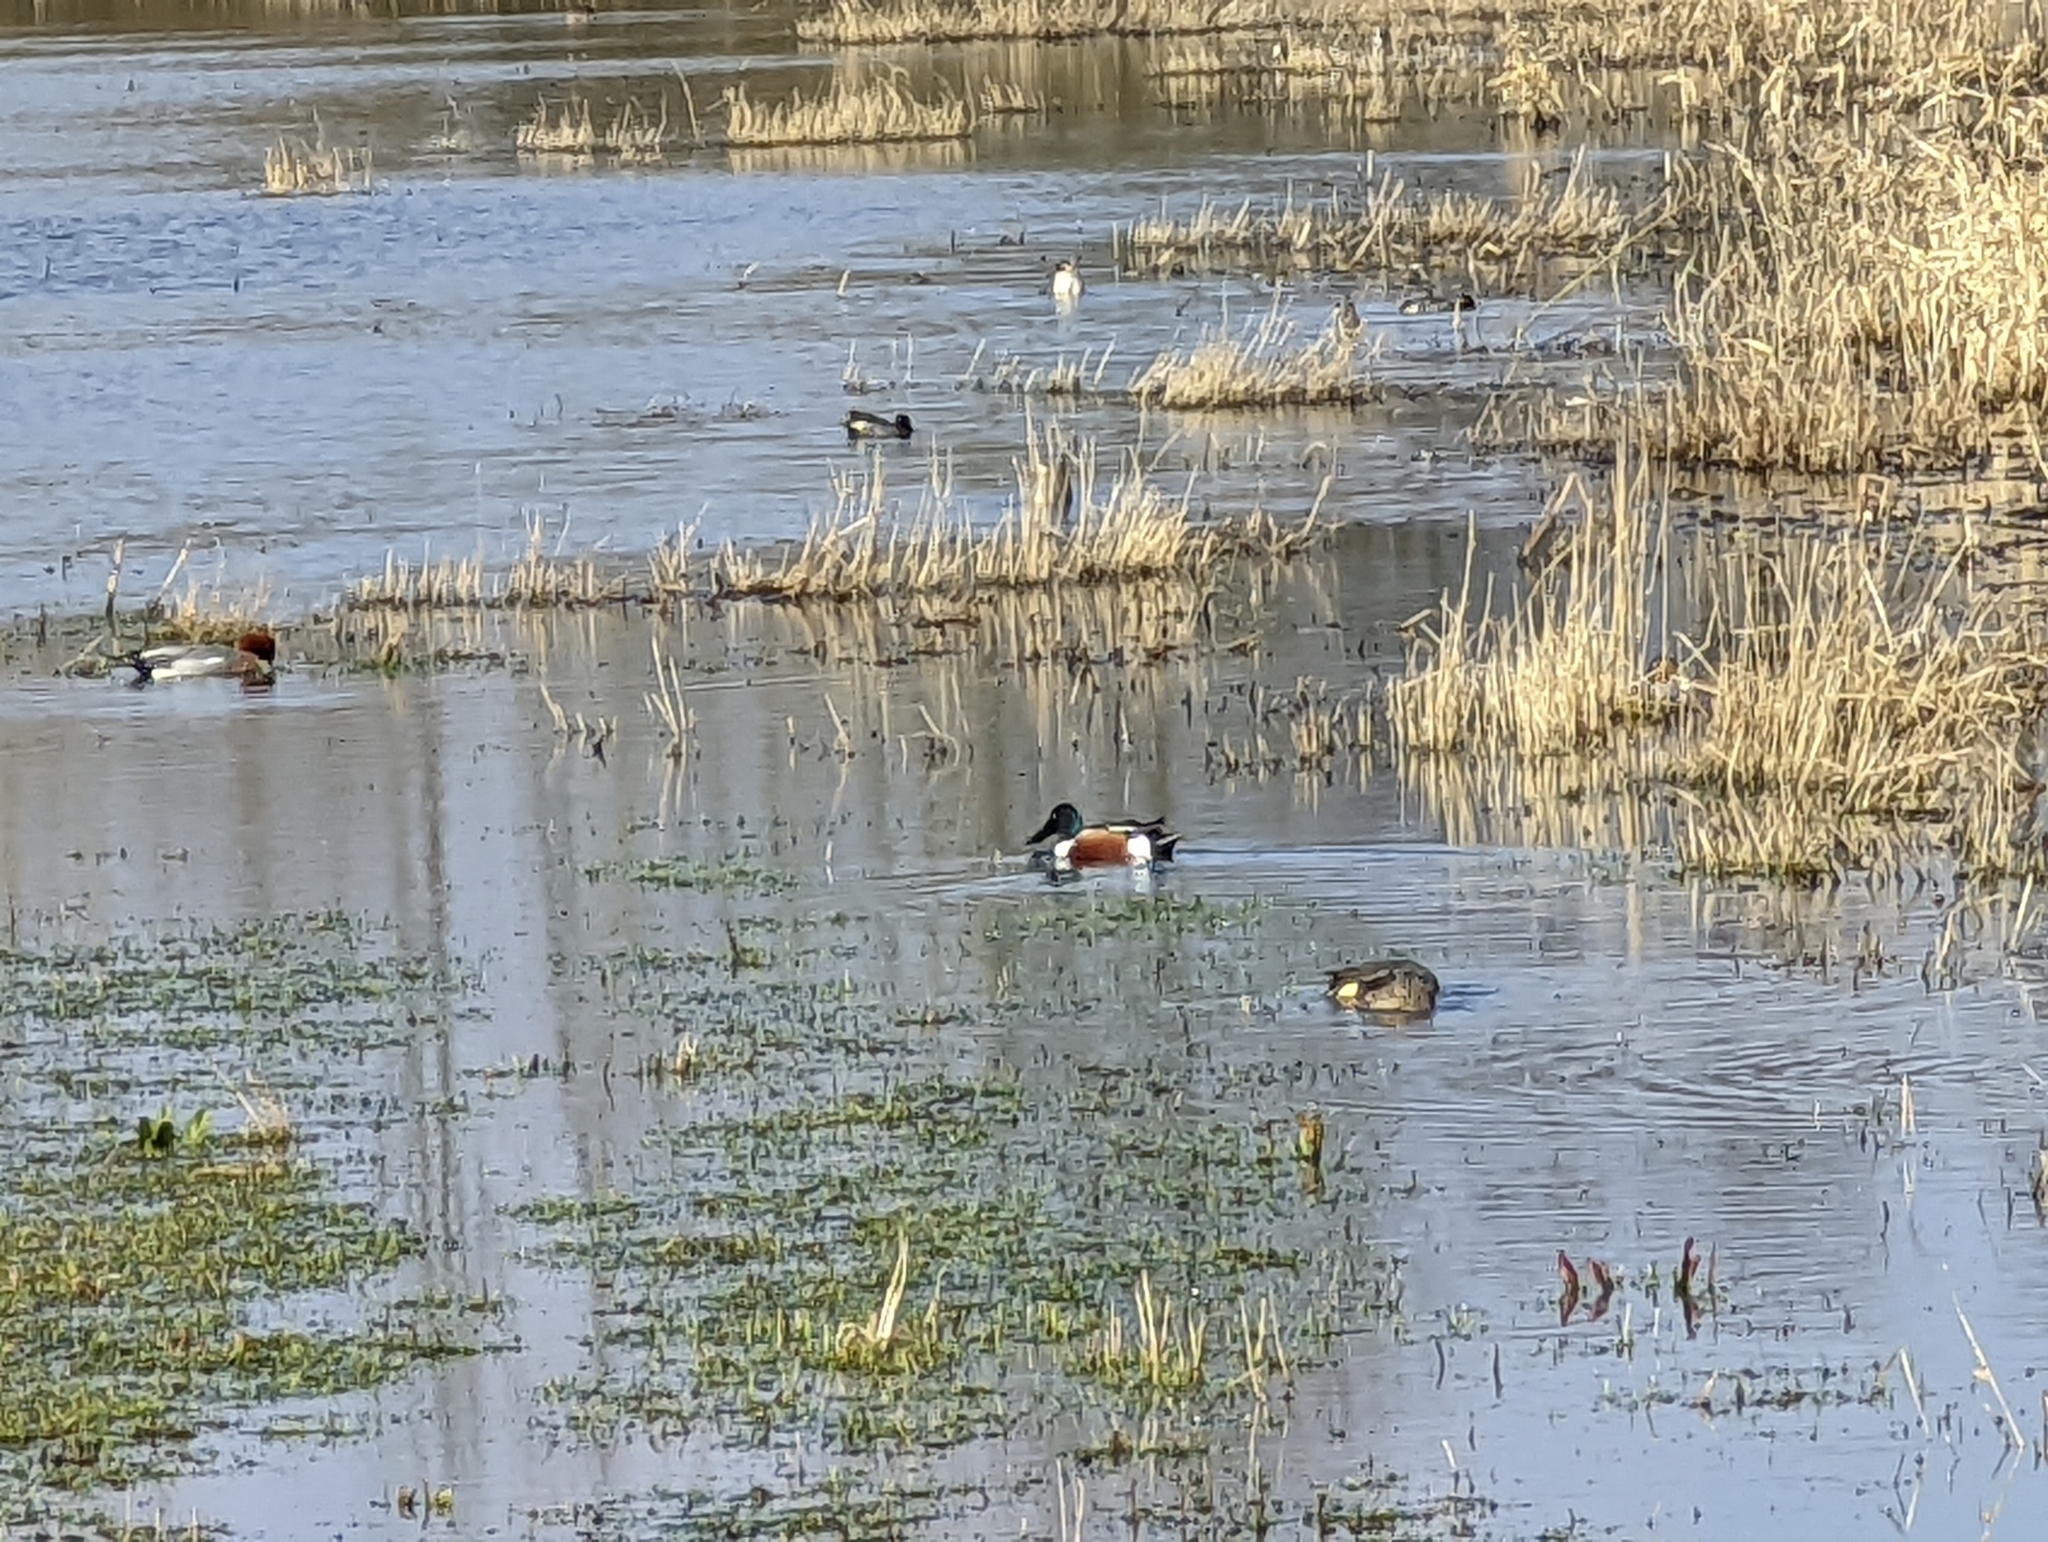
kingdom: Animalia
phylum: Chordata
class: Aves
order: Anseriformes
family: Anatidae
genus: Spatula
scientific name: Spatula clypeata
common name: Northern shoveler
